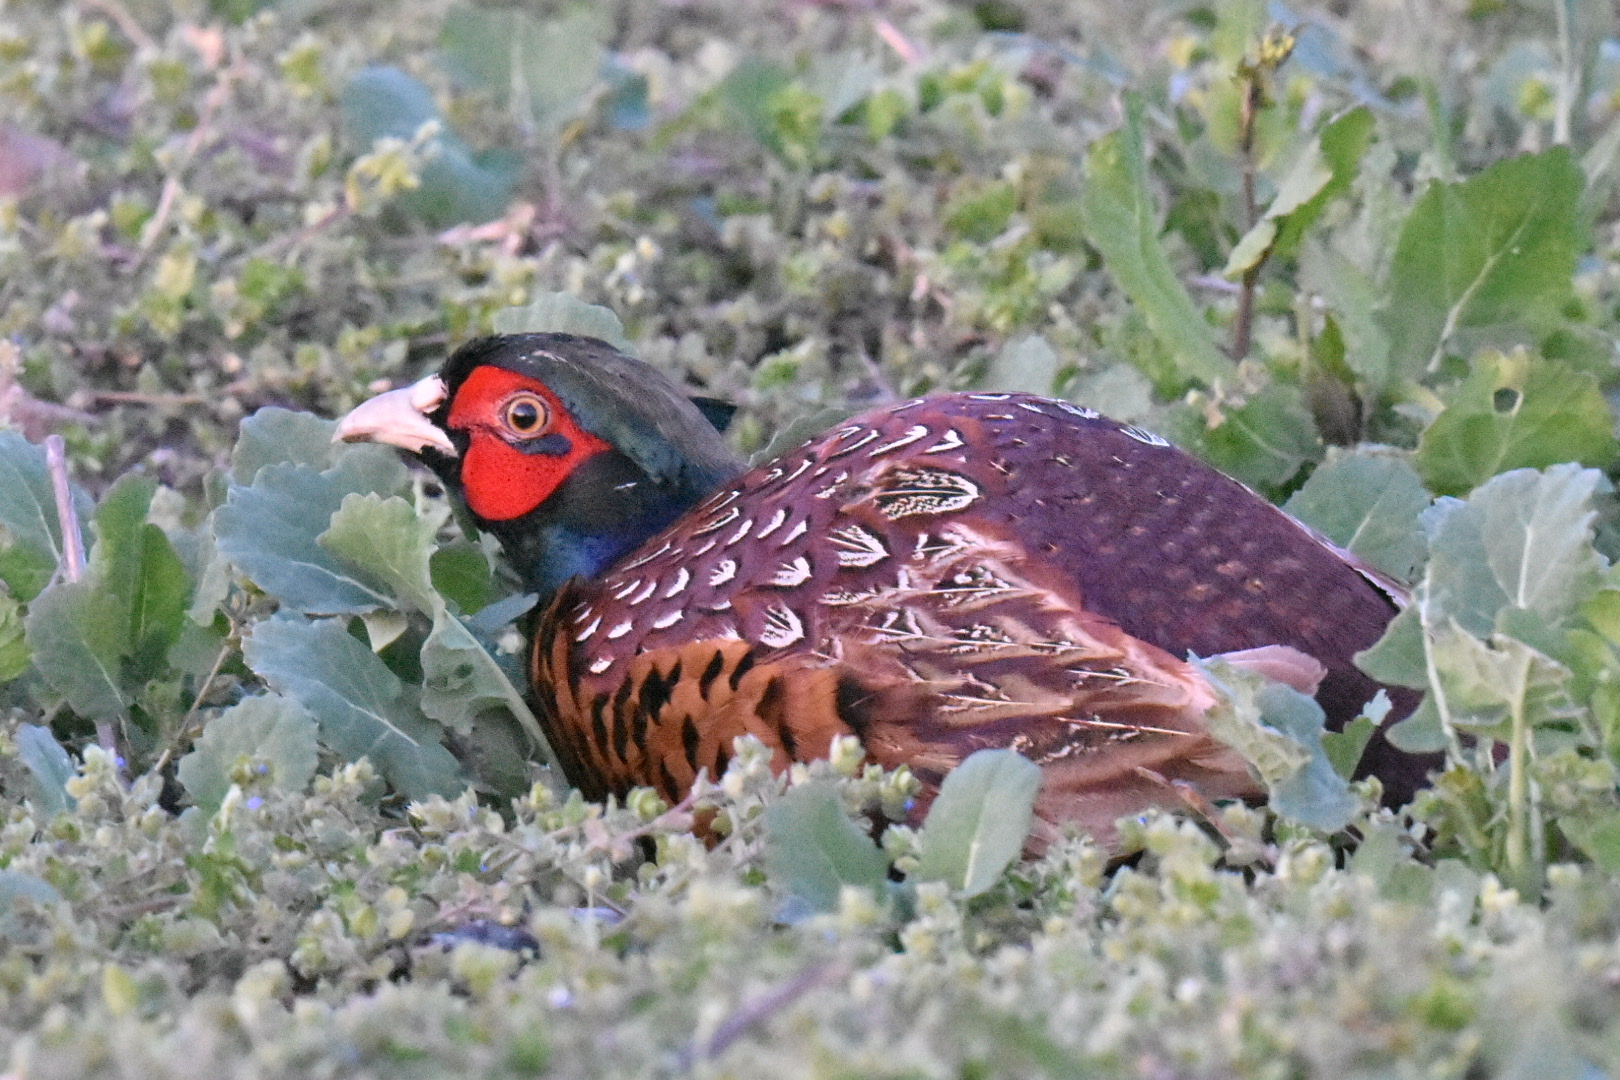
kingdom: Animalia
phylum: Chordata
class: Aves
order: Galliformes
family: Phasianidae
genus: Phasianus
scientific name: Phasianus colchicus
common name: Common pheasant
